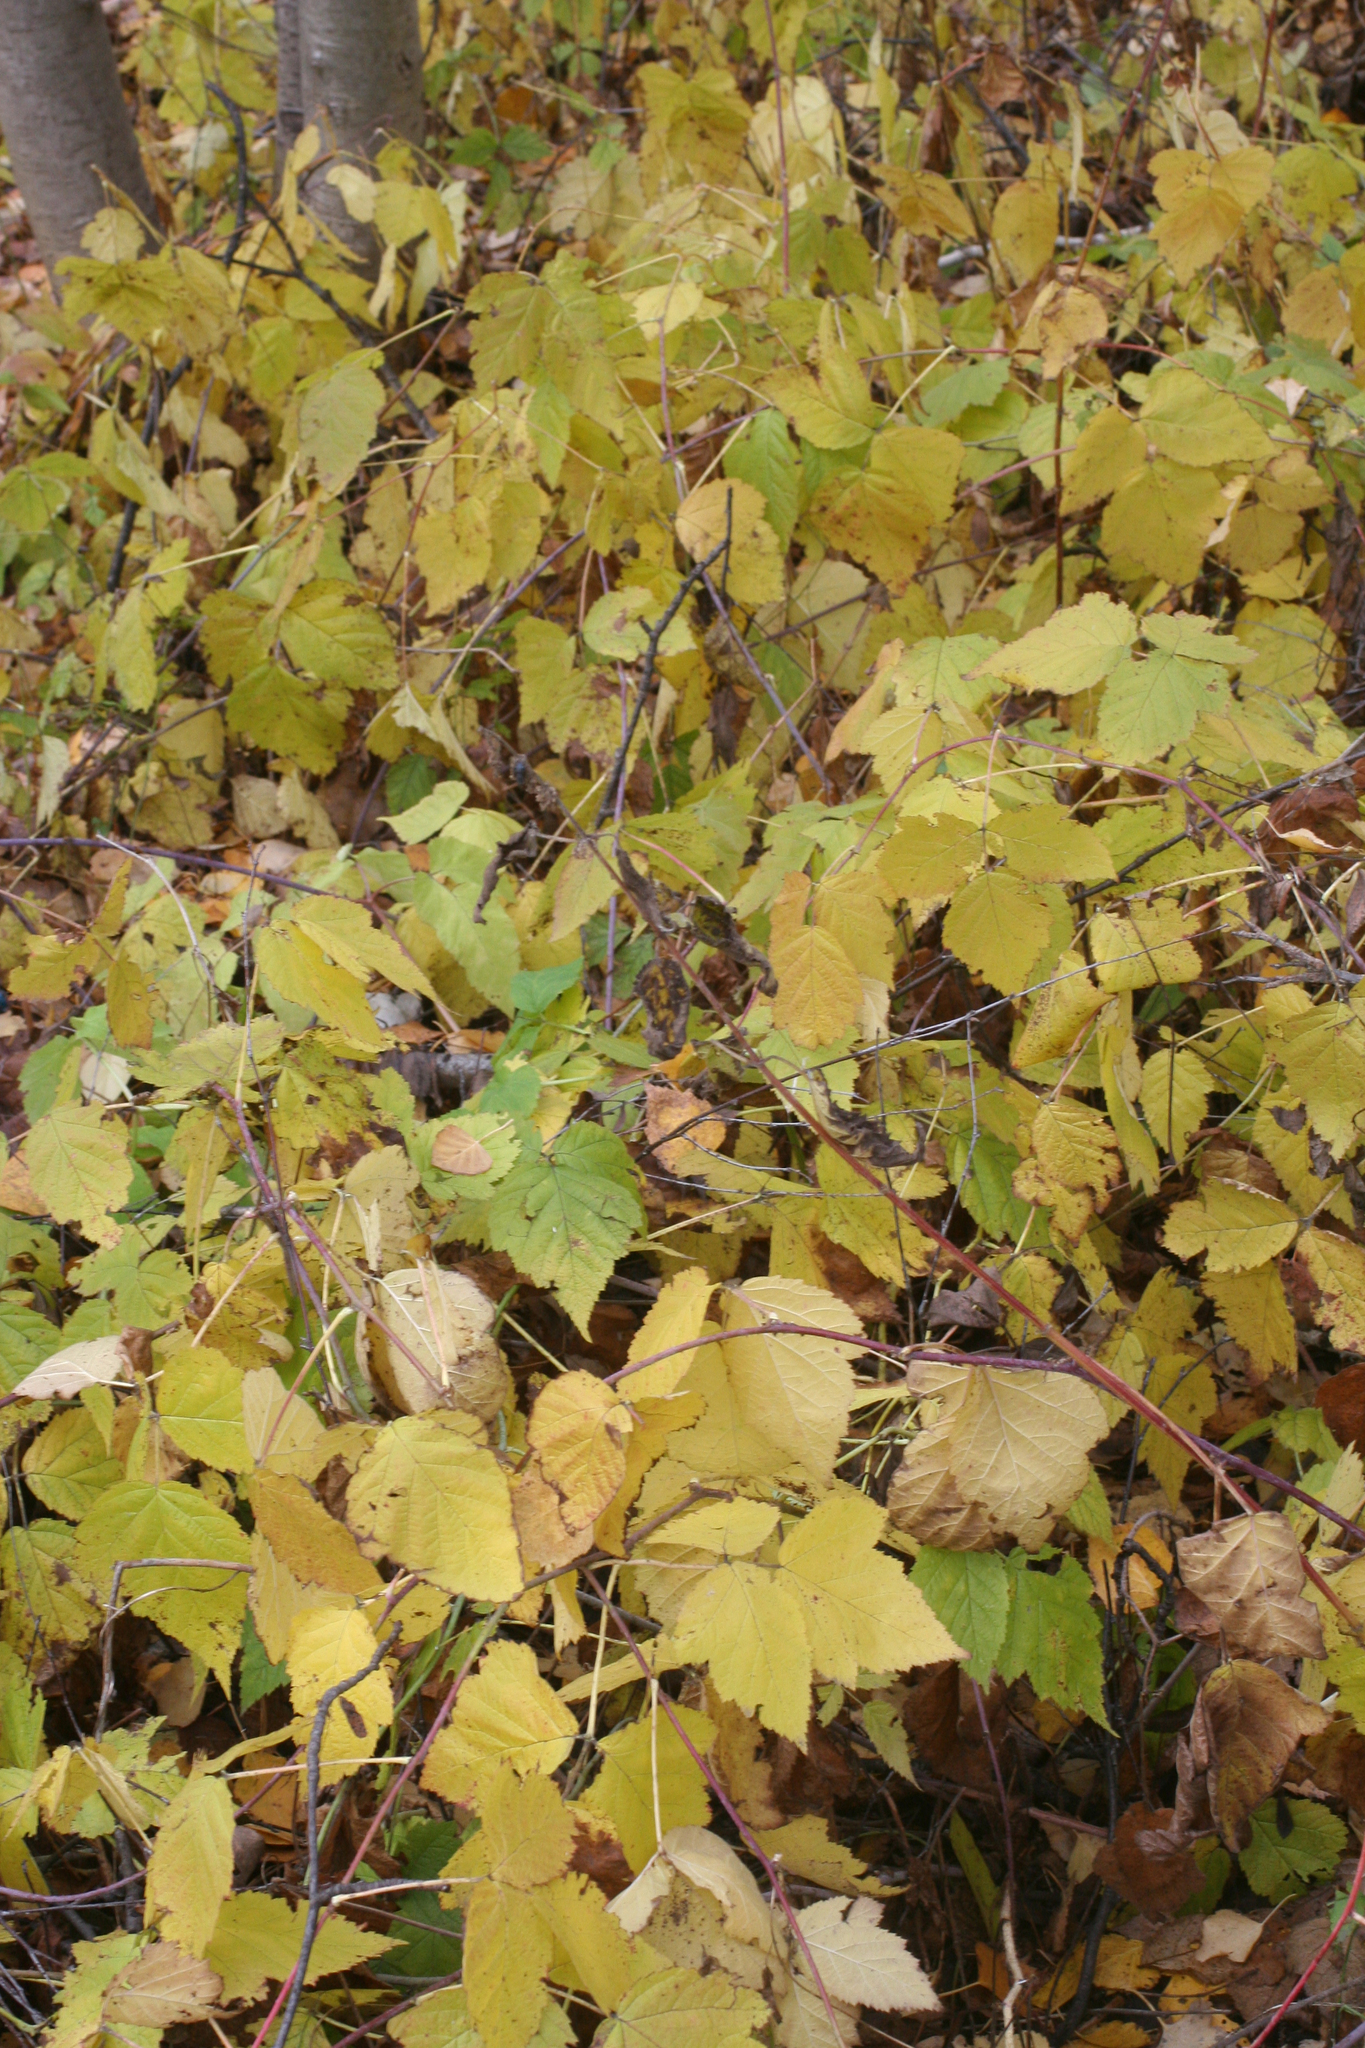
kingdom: Plantae
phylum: Tracheophyta
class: Magnoliopsida
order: Rosales
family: Rosaceae
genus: Rubus
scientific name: Rubus caesius
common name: Dewberry
